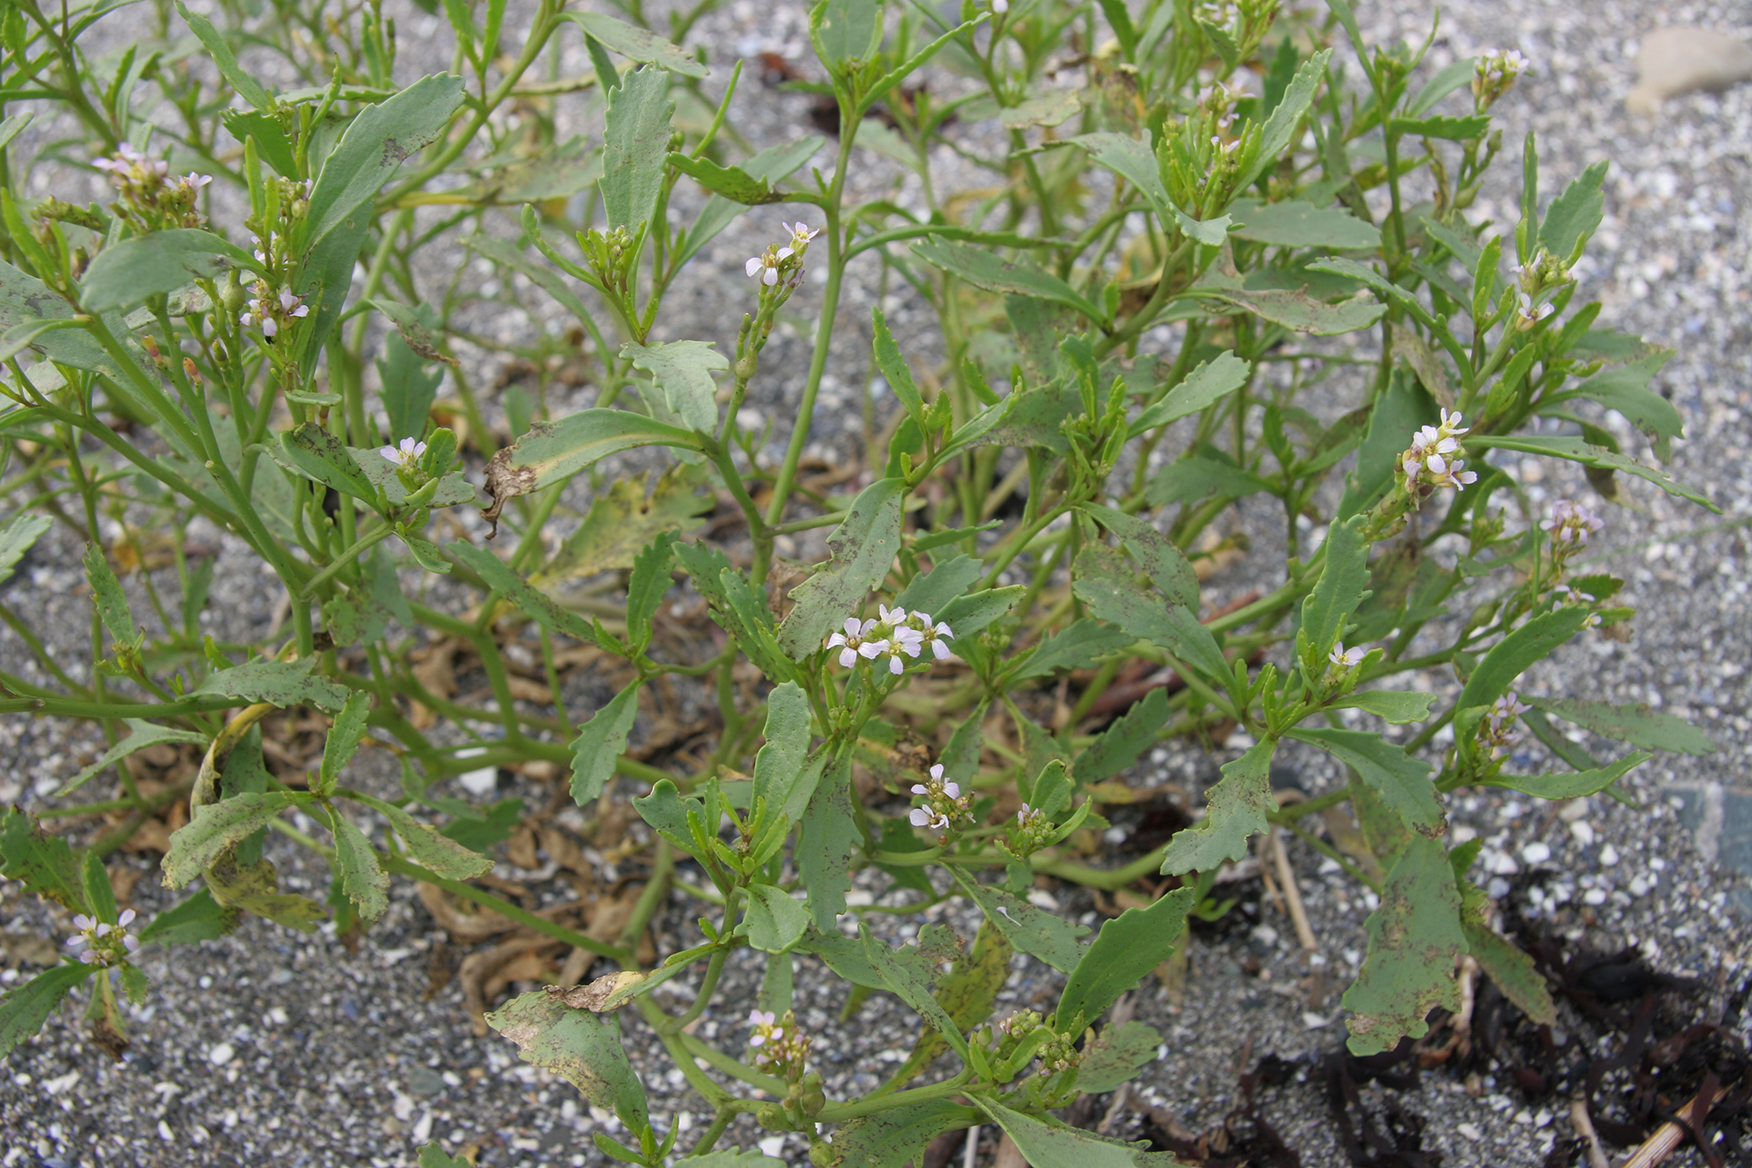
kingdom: Plantae
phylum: Tracheophyta
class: Magnoliopsida
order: Brassicales
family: Brassicaceae
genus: Cakile
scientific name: Cakile edentula
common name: American sea rocket
